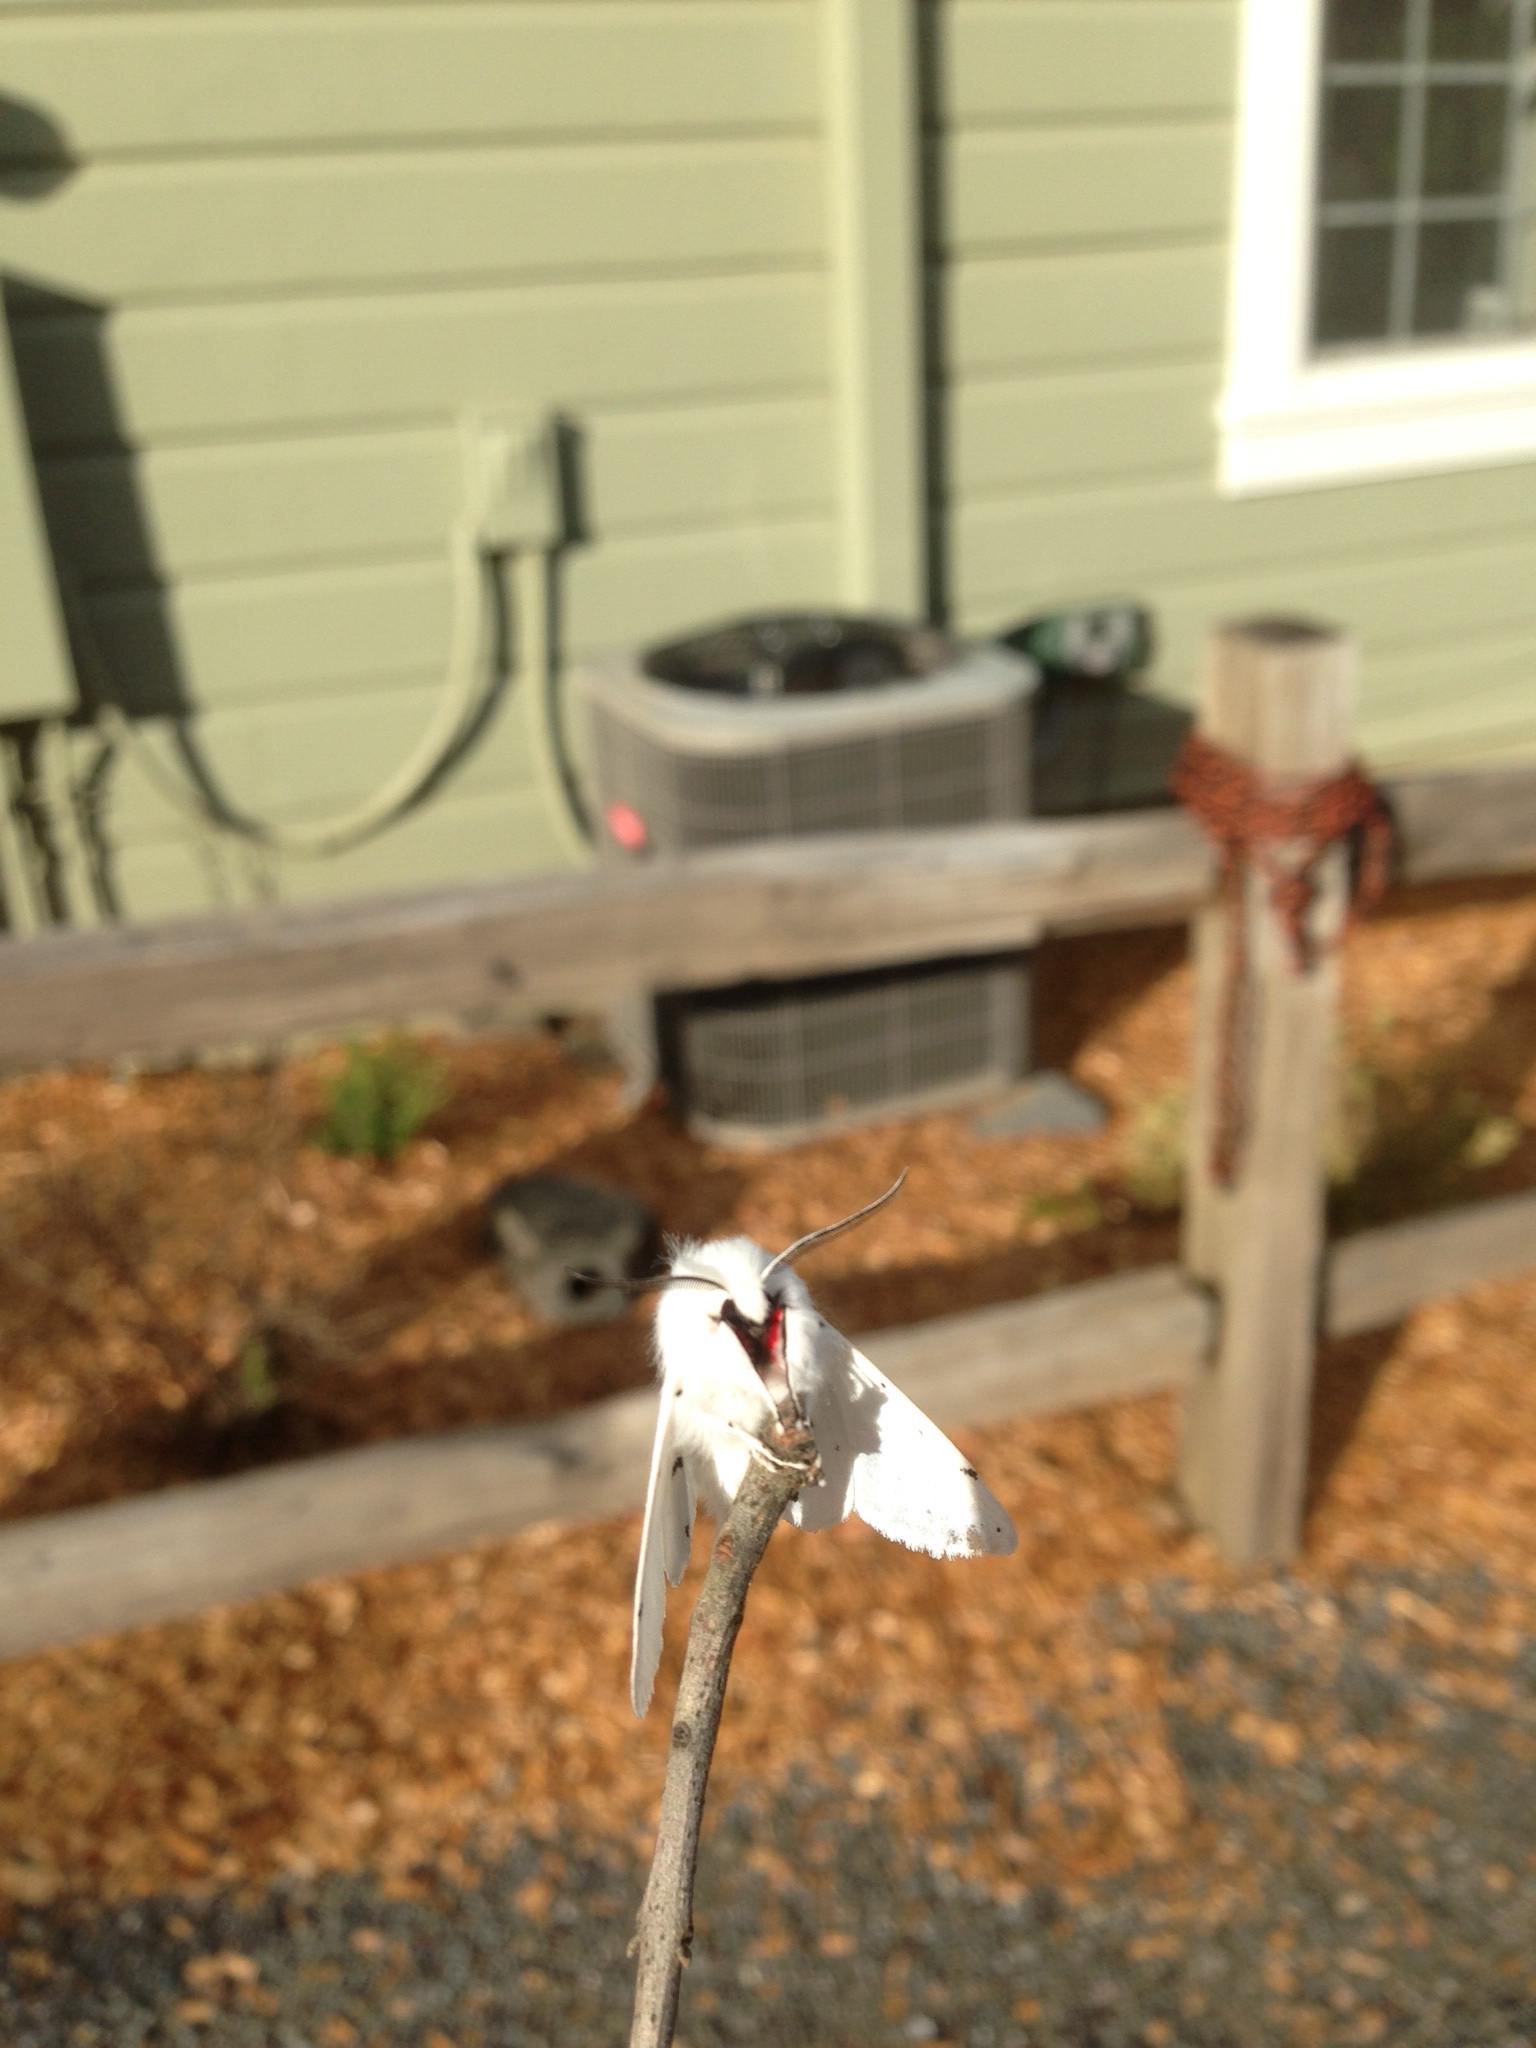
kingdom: Animalia
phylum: Arthropoda
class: Insecta
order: Lepidoptera
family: Erebidae
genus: Spilosoma
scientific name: Spilosoma vestalis
